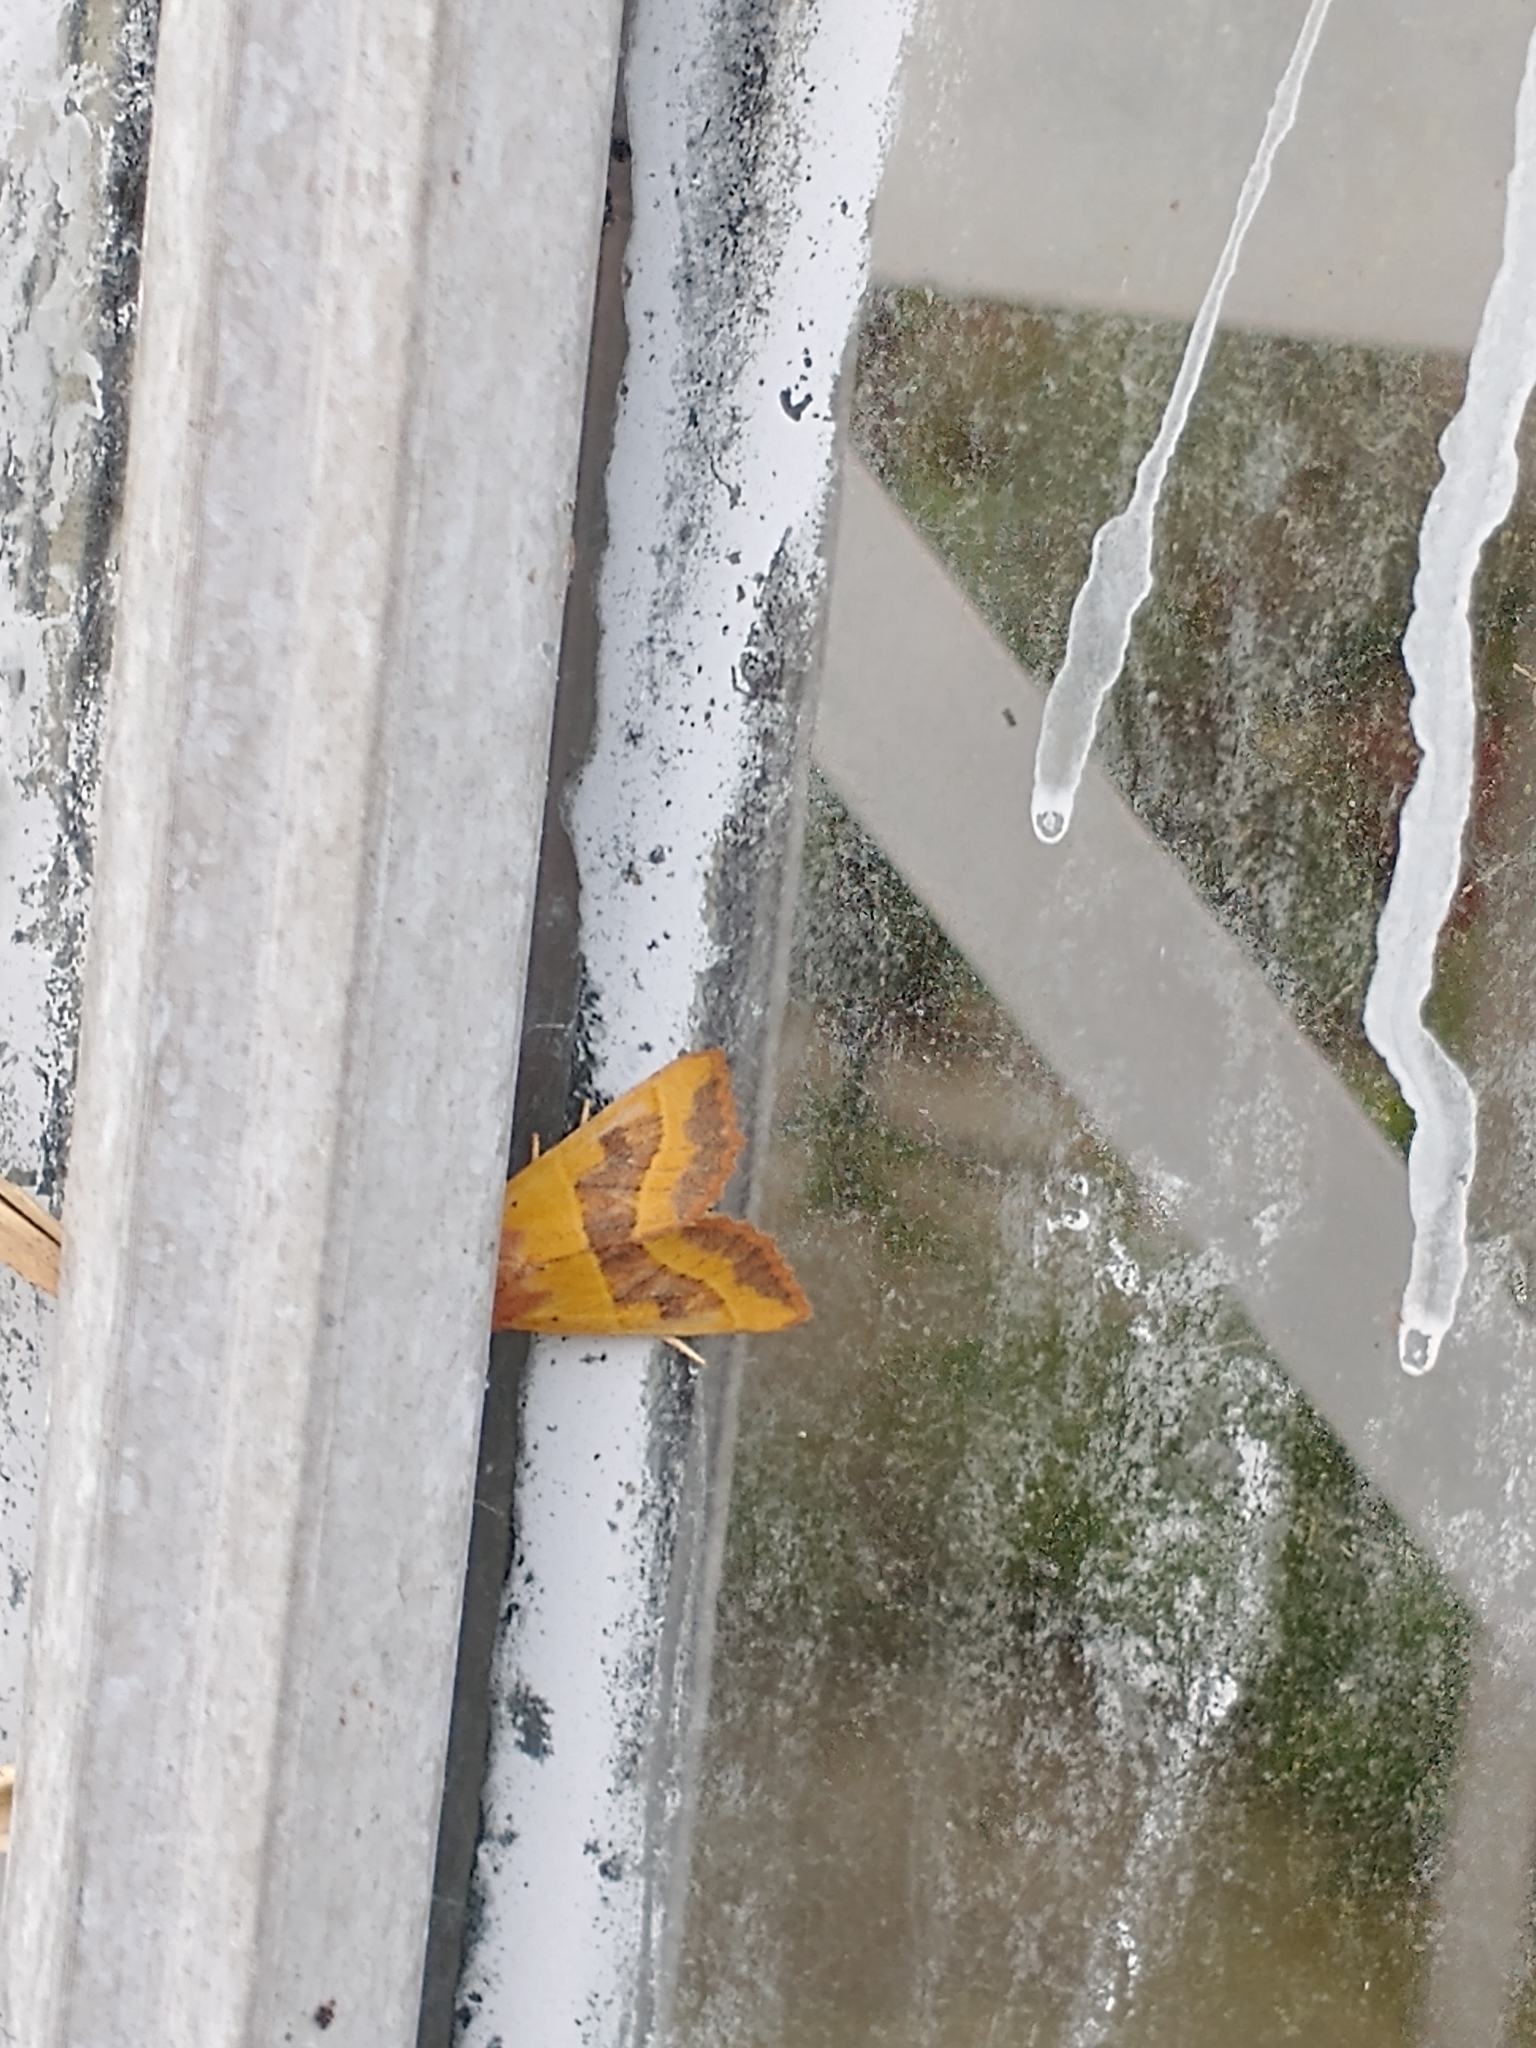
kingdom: Animalia
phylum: Arthropoda
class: Insecta
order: Lepidoptera
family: Noctuidae
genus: Atethmia
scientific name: Atethmia centrago
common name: Centre-barred sallow
